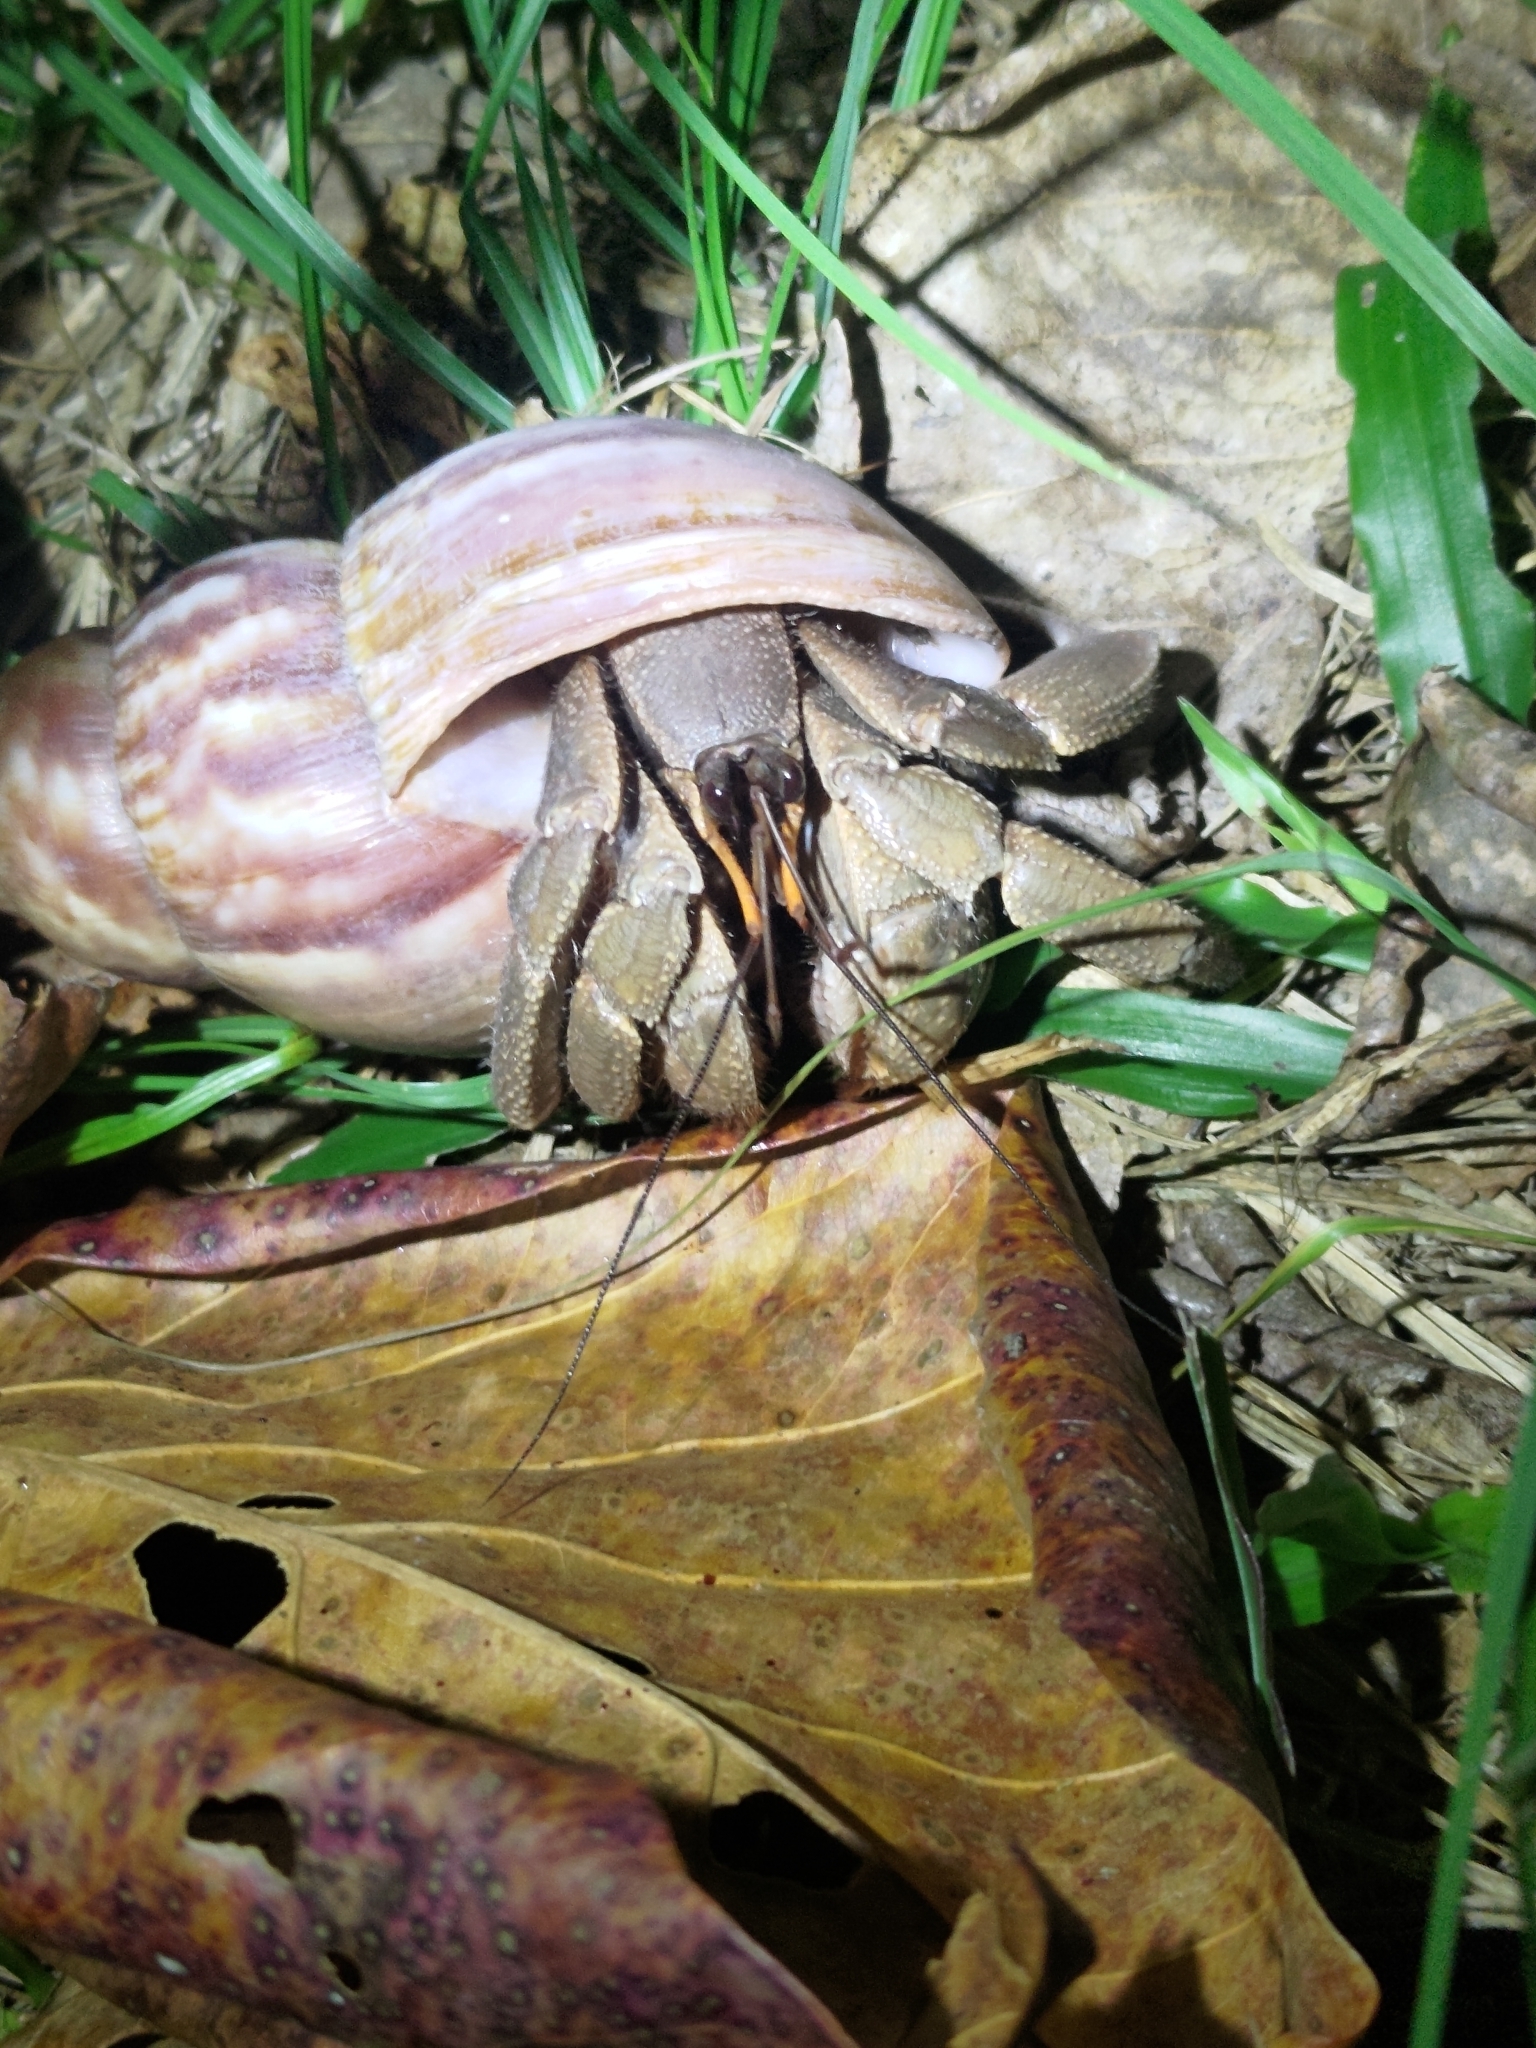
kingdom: Animalia
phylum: Arthropoda
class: Malacostraca
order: Decapoda
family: Coenobitidae
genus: Coenobita
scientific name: Coenobita cavipes
